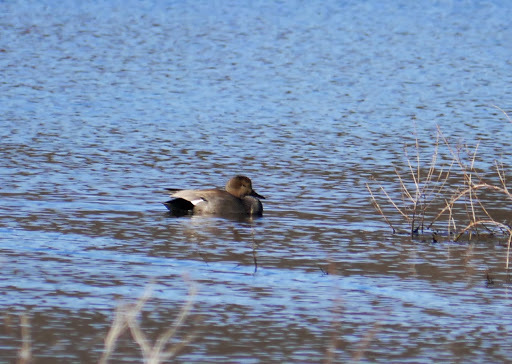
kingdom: Animalia
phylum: Chordata
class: Aves
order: Anseriformes
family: Anatidae
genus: Mareca
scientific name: Mareca strepera
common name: Gadwall
